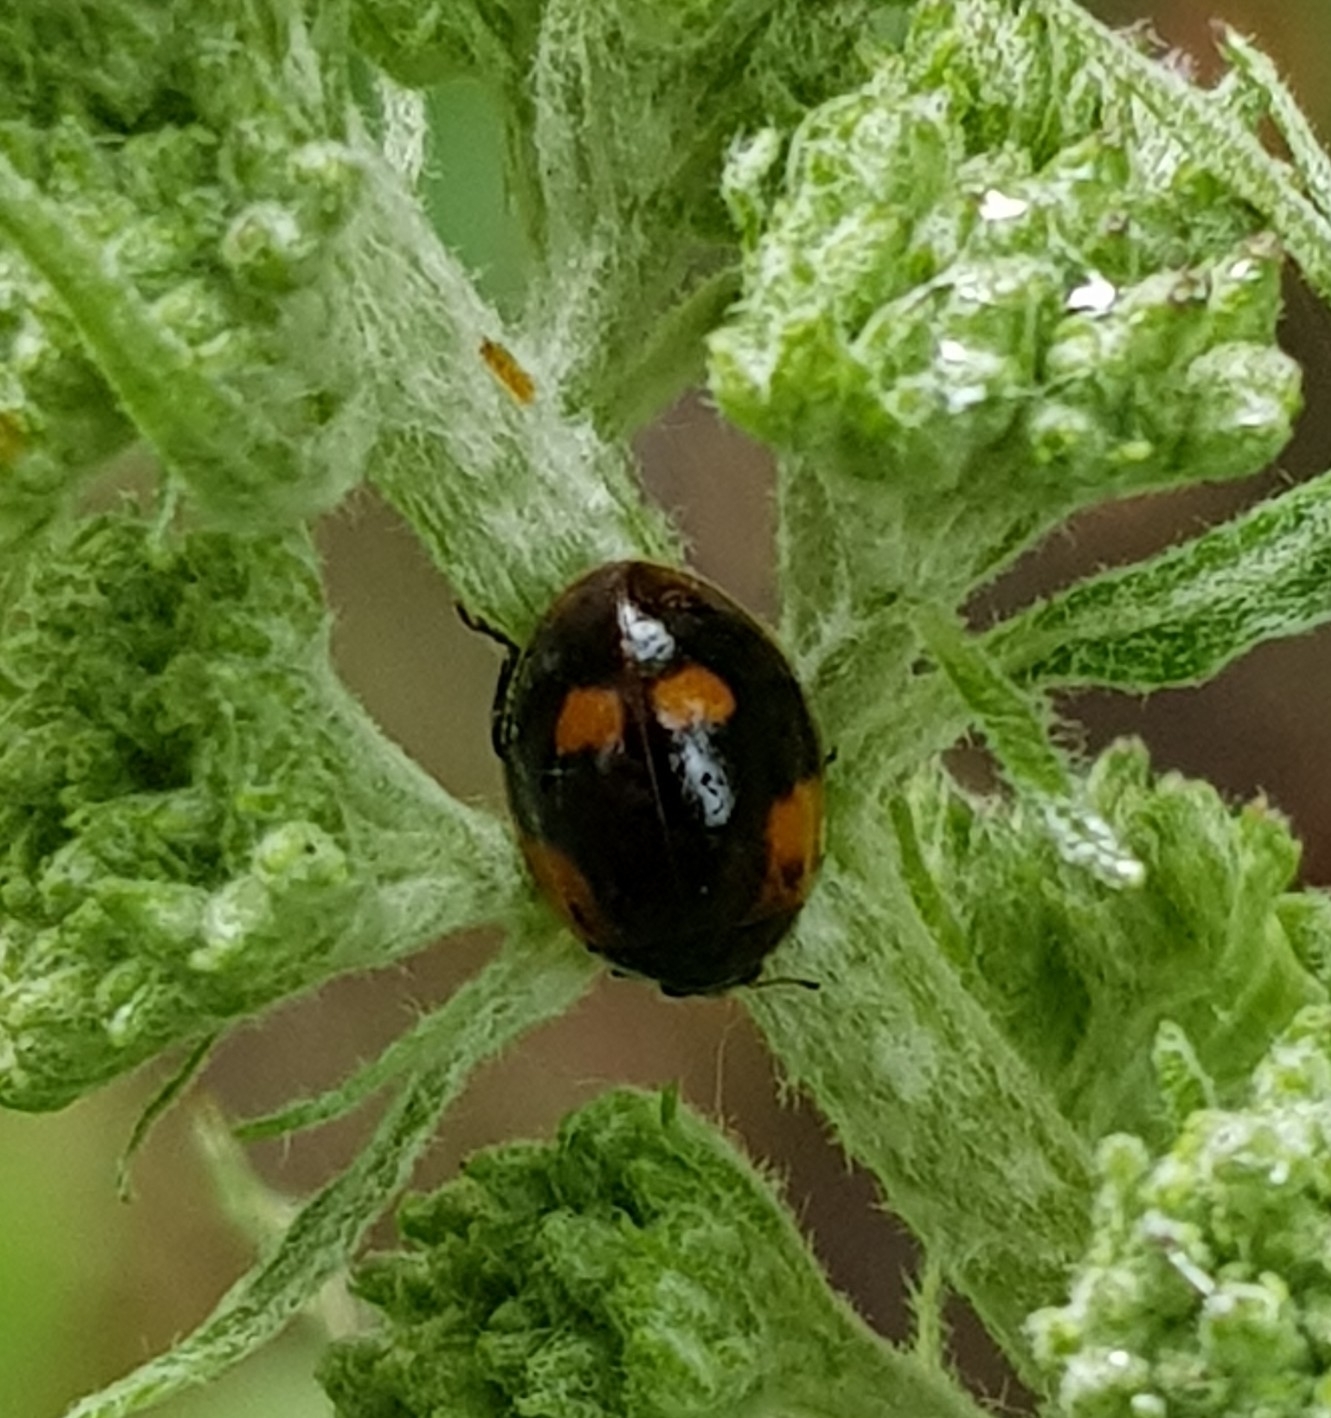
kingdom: Animalia
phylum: Arthropoda
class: Insecta
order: Coleoptera
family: Coccinellidae
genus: Adalia
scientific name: Adalia bipunctata
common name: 2-spot ladybird
